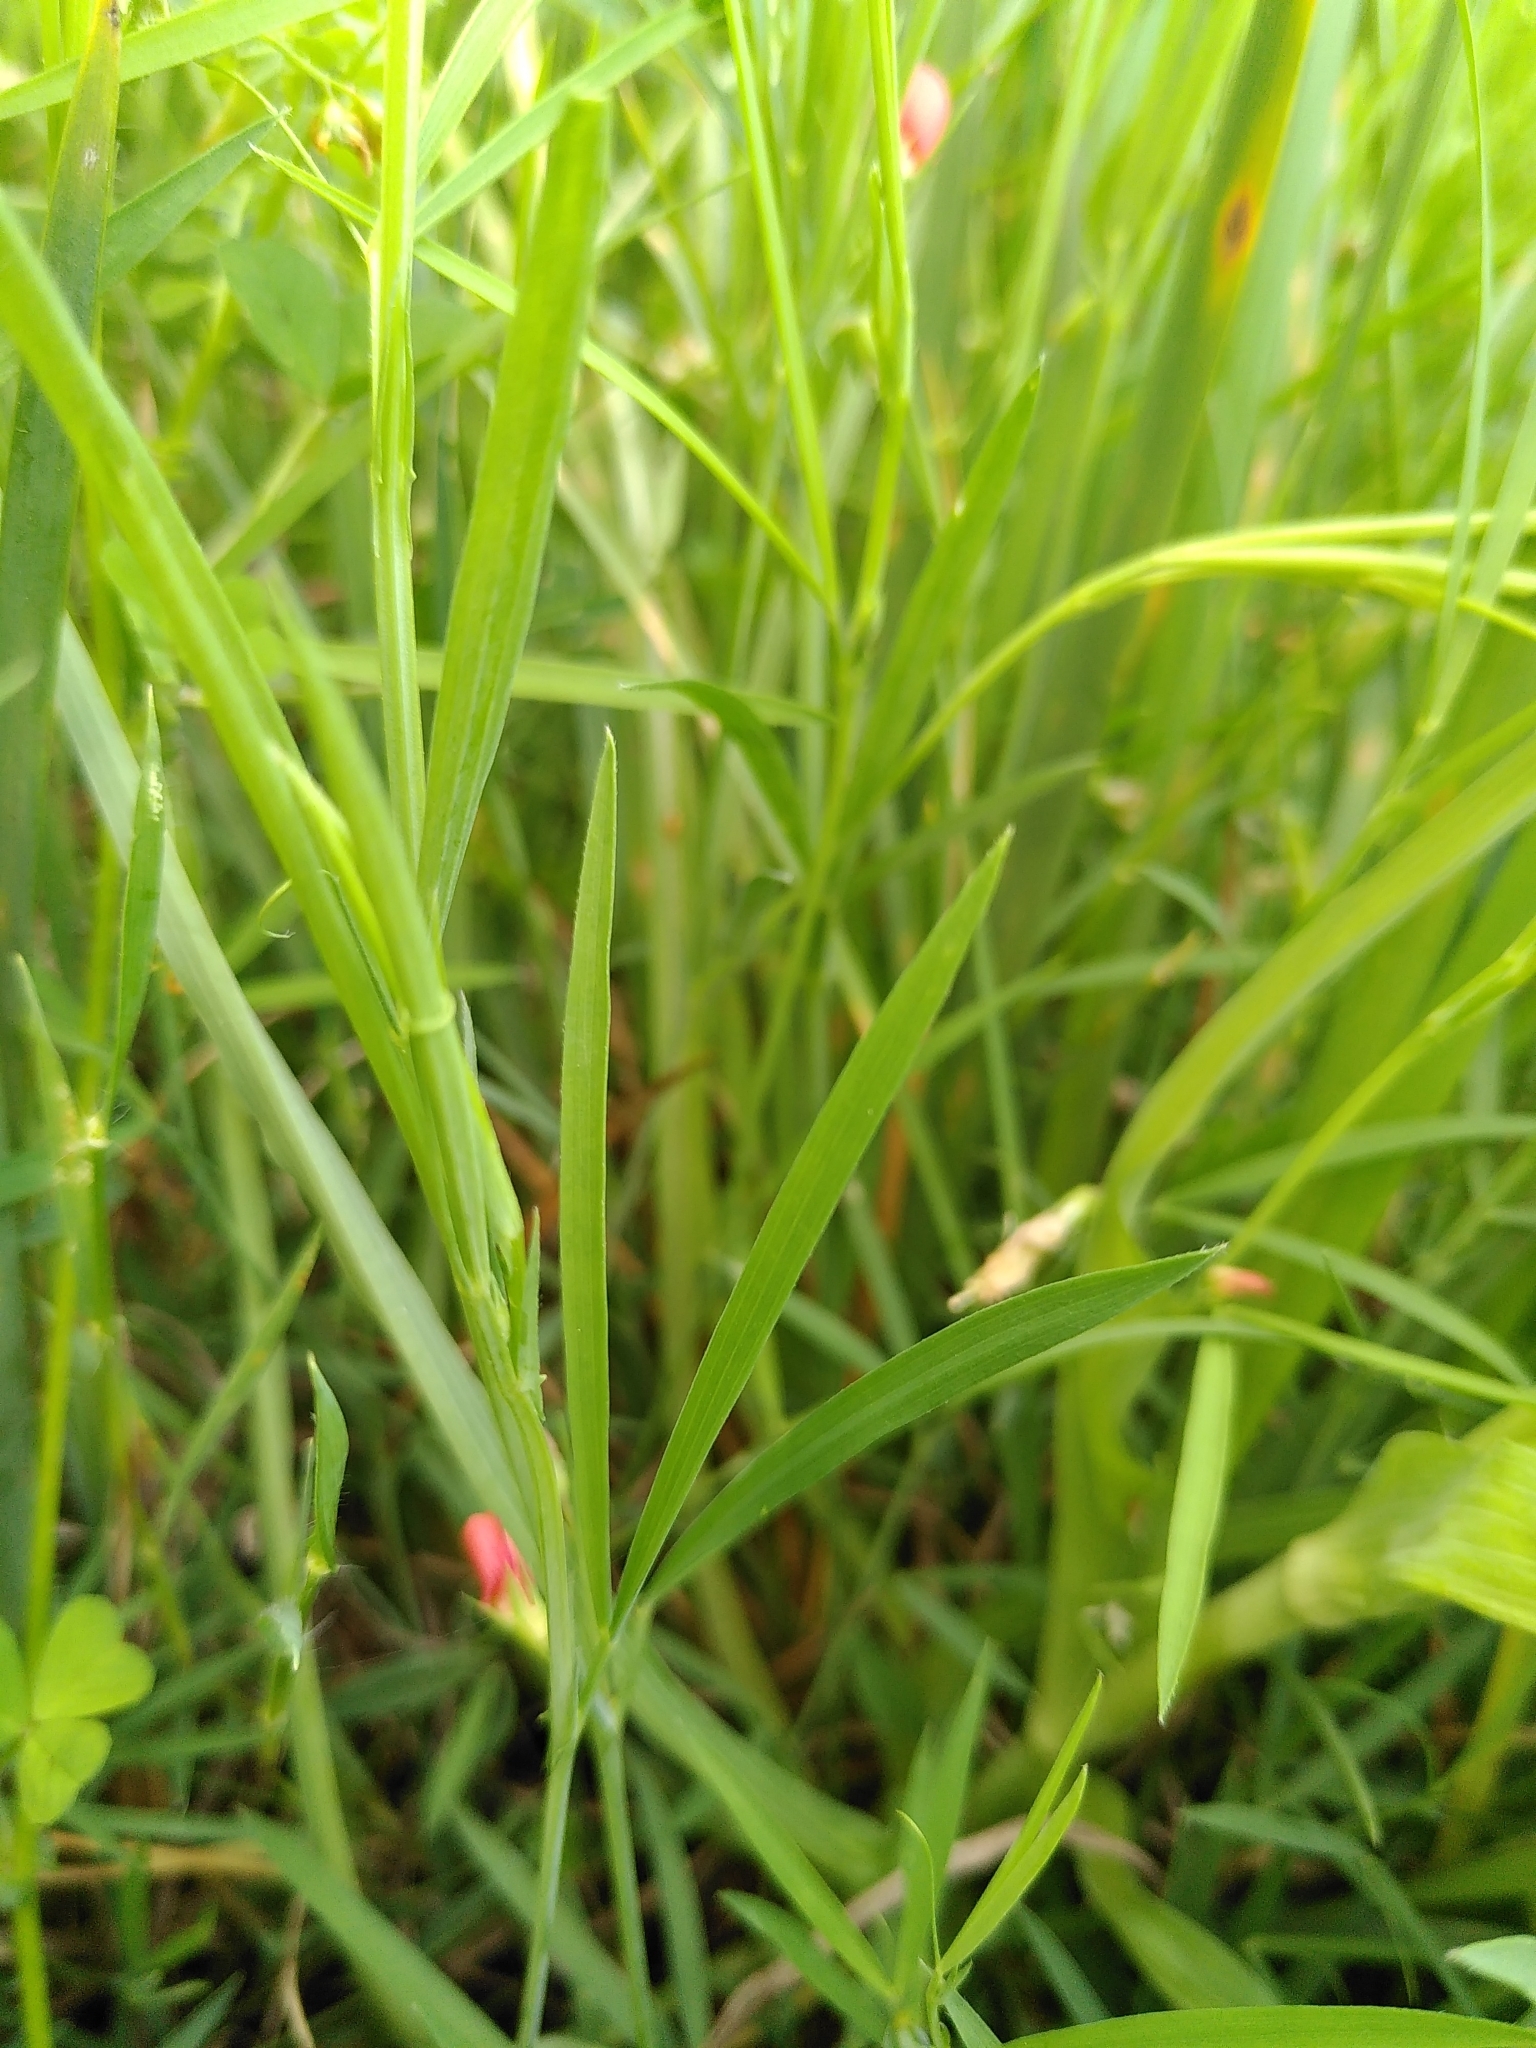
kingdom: Plantae
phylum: Tracheophyta
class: Magnoliopsida
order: Fabales
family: Fabaceae
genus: Lathyrus
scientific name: Lathyrus sphaericus
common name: Grass pea
